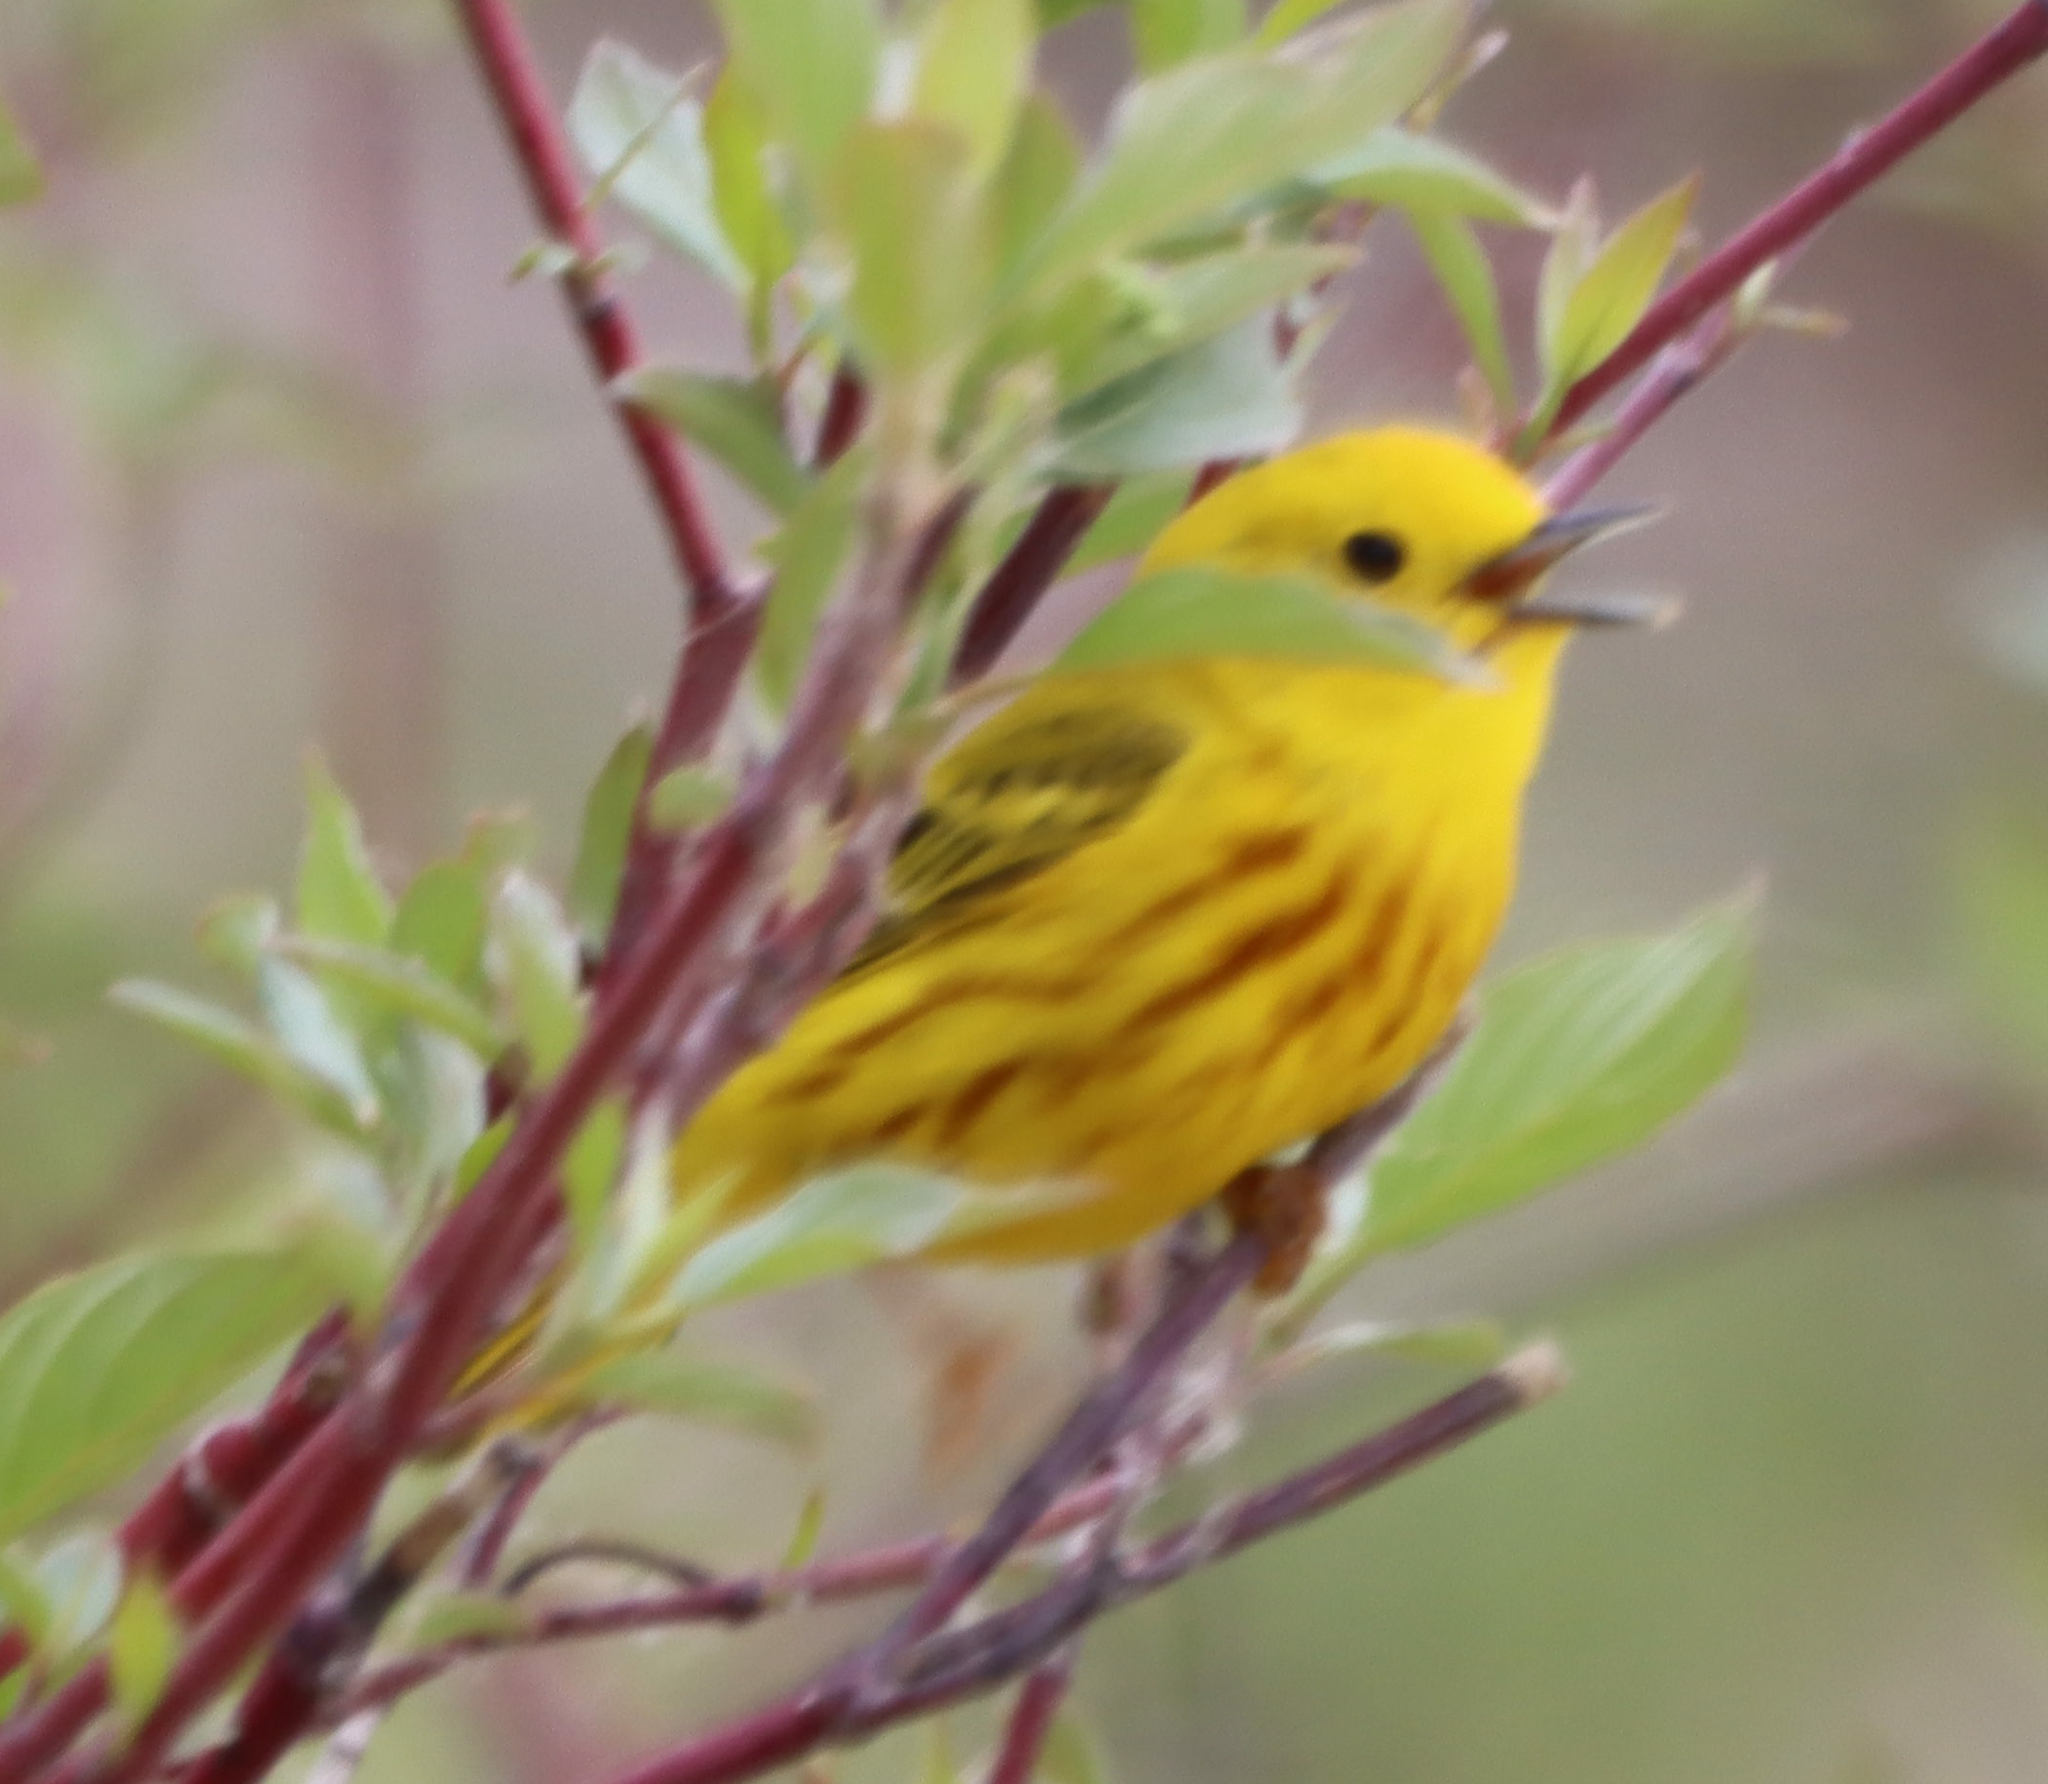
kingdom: Animalia
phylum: Chordata
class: Aves
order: Passeriformes
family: Parulidae
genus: Setophaga
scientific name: Setophaga petechia
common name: Yellow warbler
